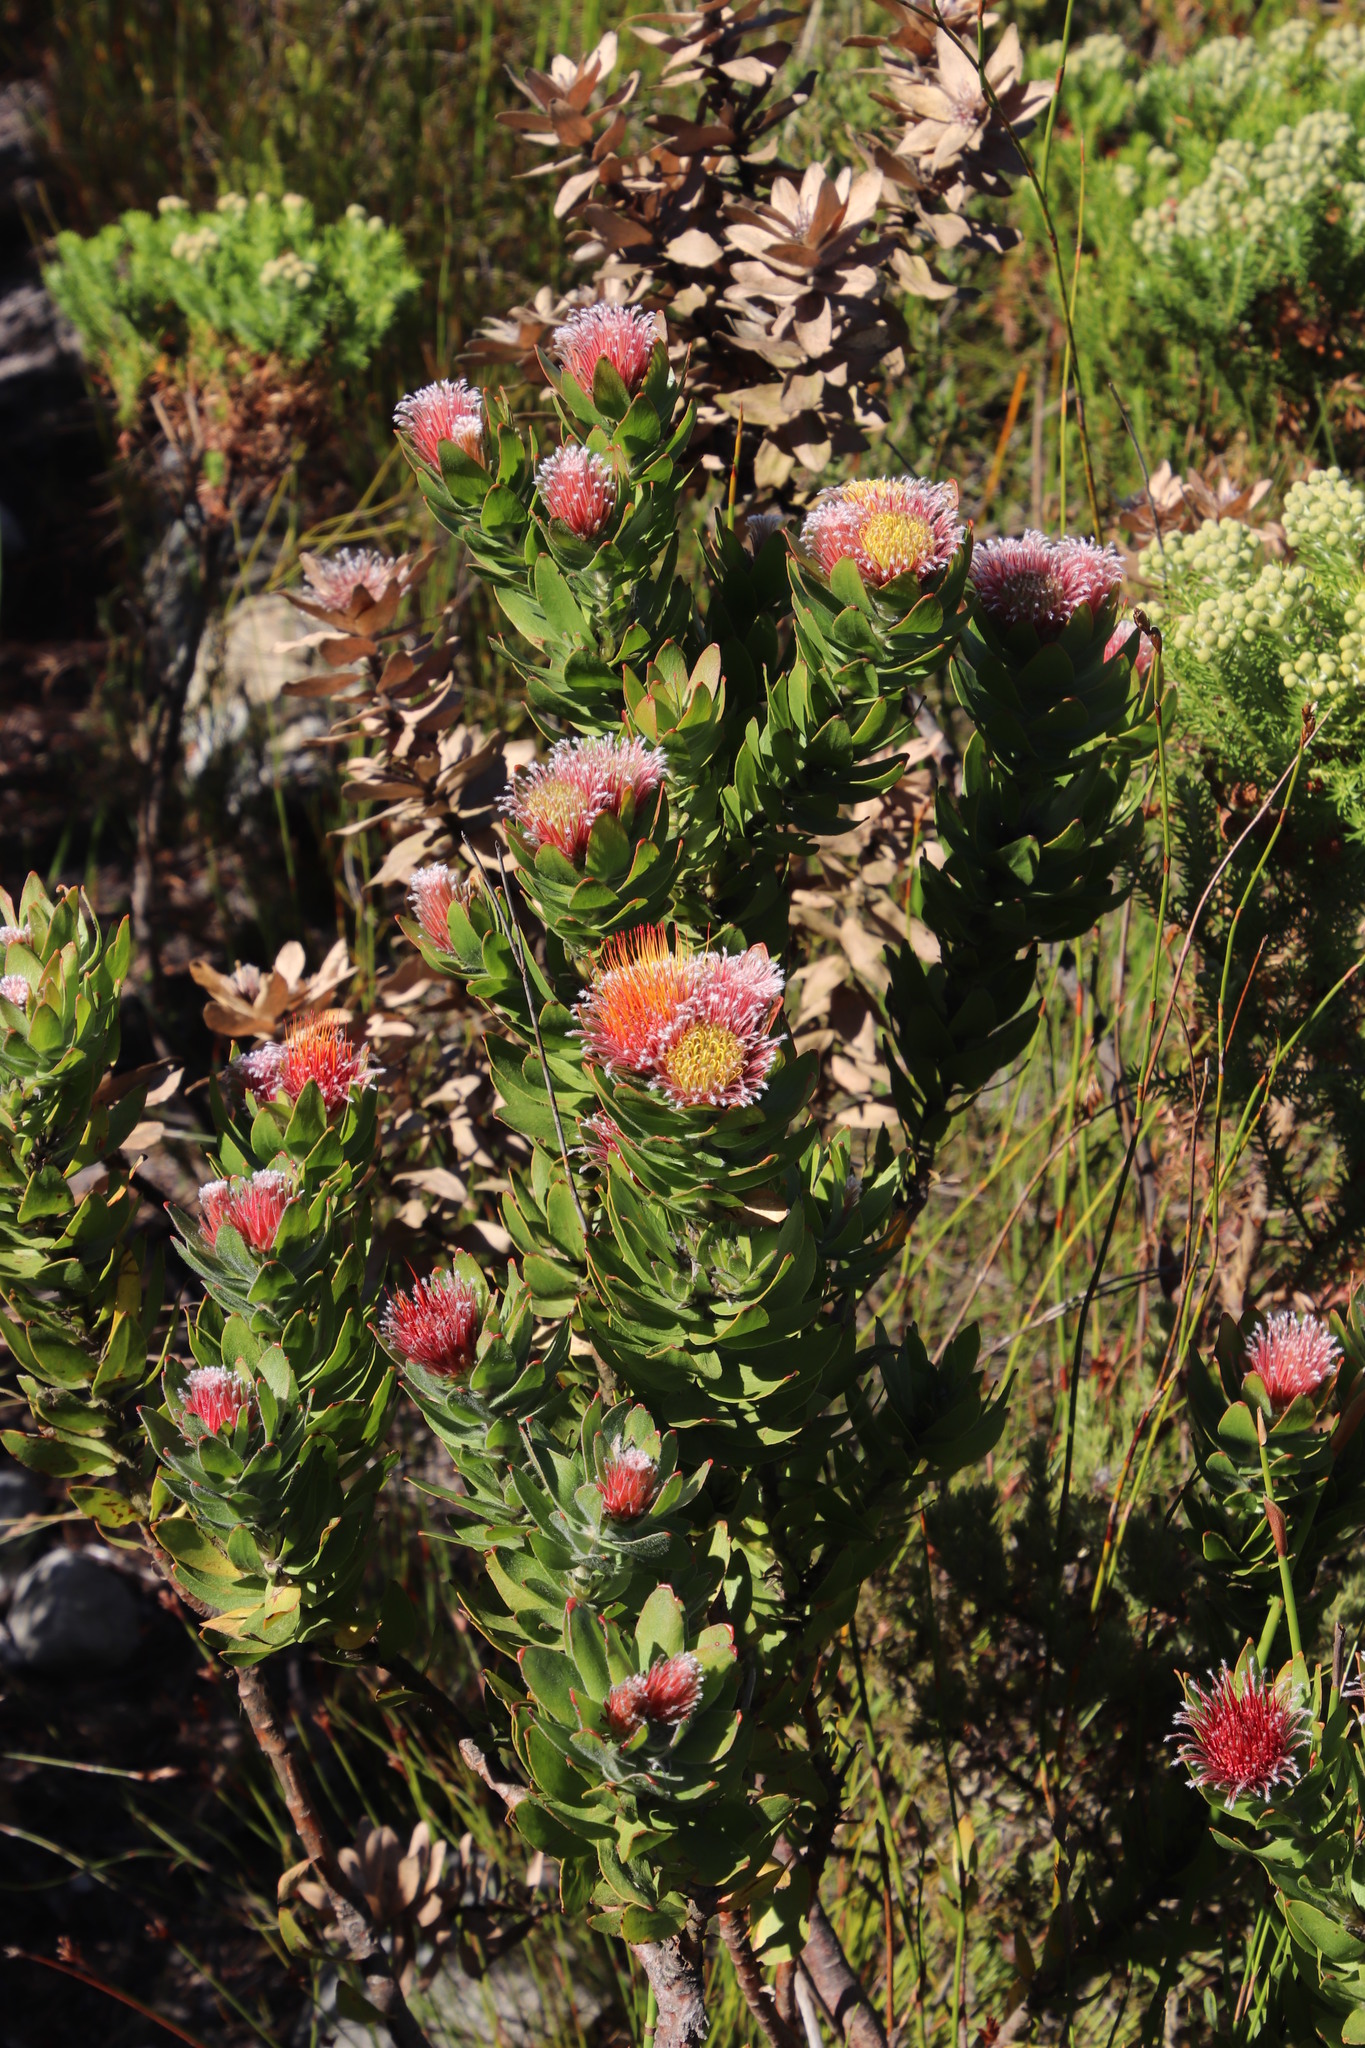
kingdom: Plantae
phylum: Tracheophyta
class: Magnoliopsida
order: Proteales
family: Proteaceae
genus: Leucospermum
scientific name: Leucospermum oleifolium
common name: Matches
